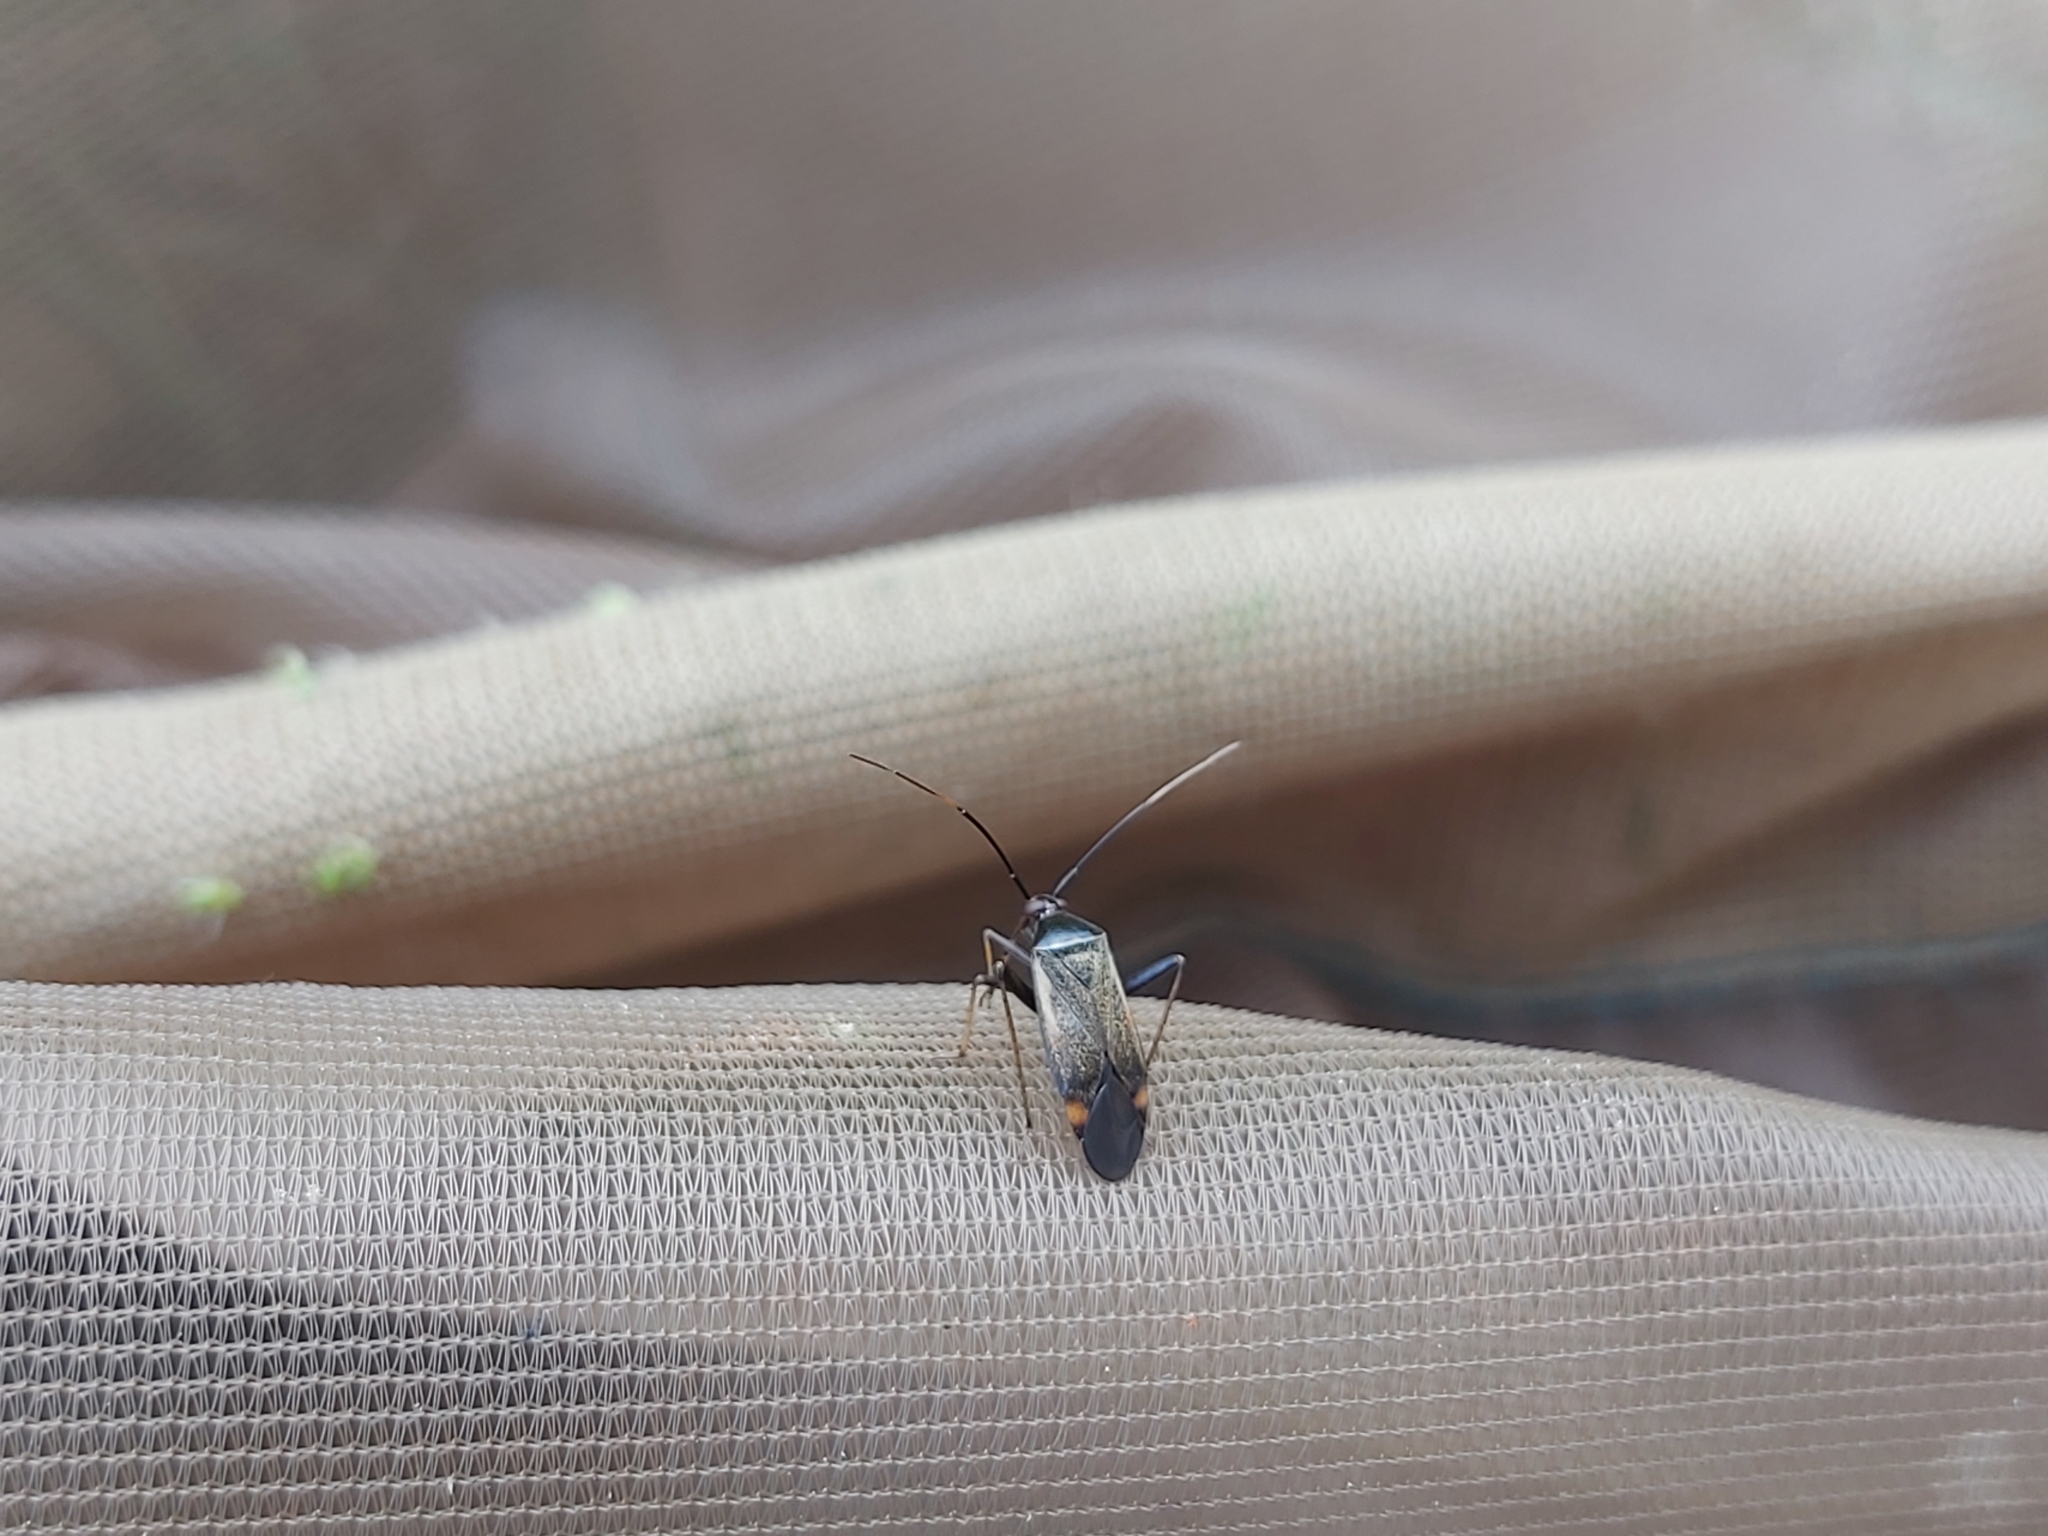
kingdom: Animalia
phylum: Arthropoda
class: Insecta
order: Hemiptera
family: Miridae
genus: Adelphocoris
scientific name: Adelphocoris seticornis
